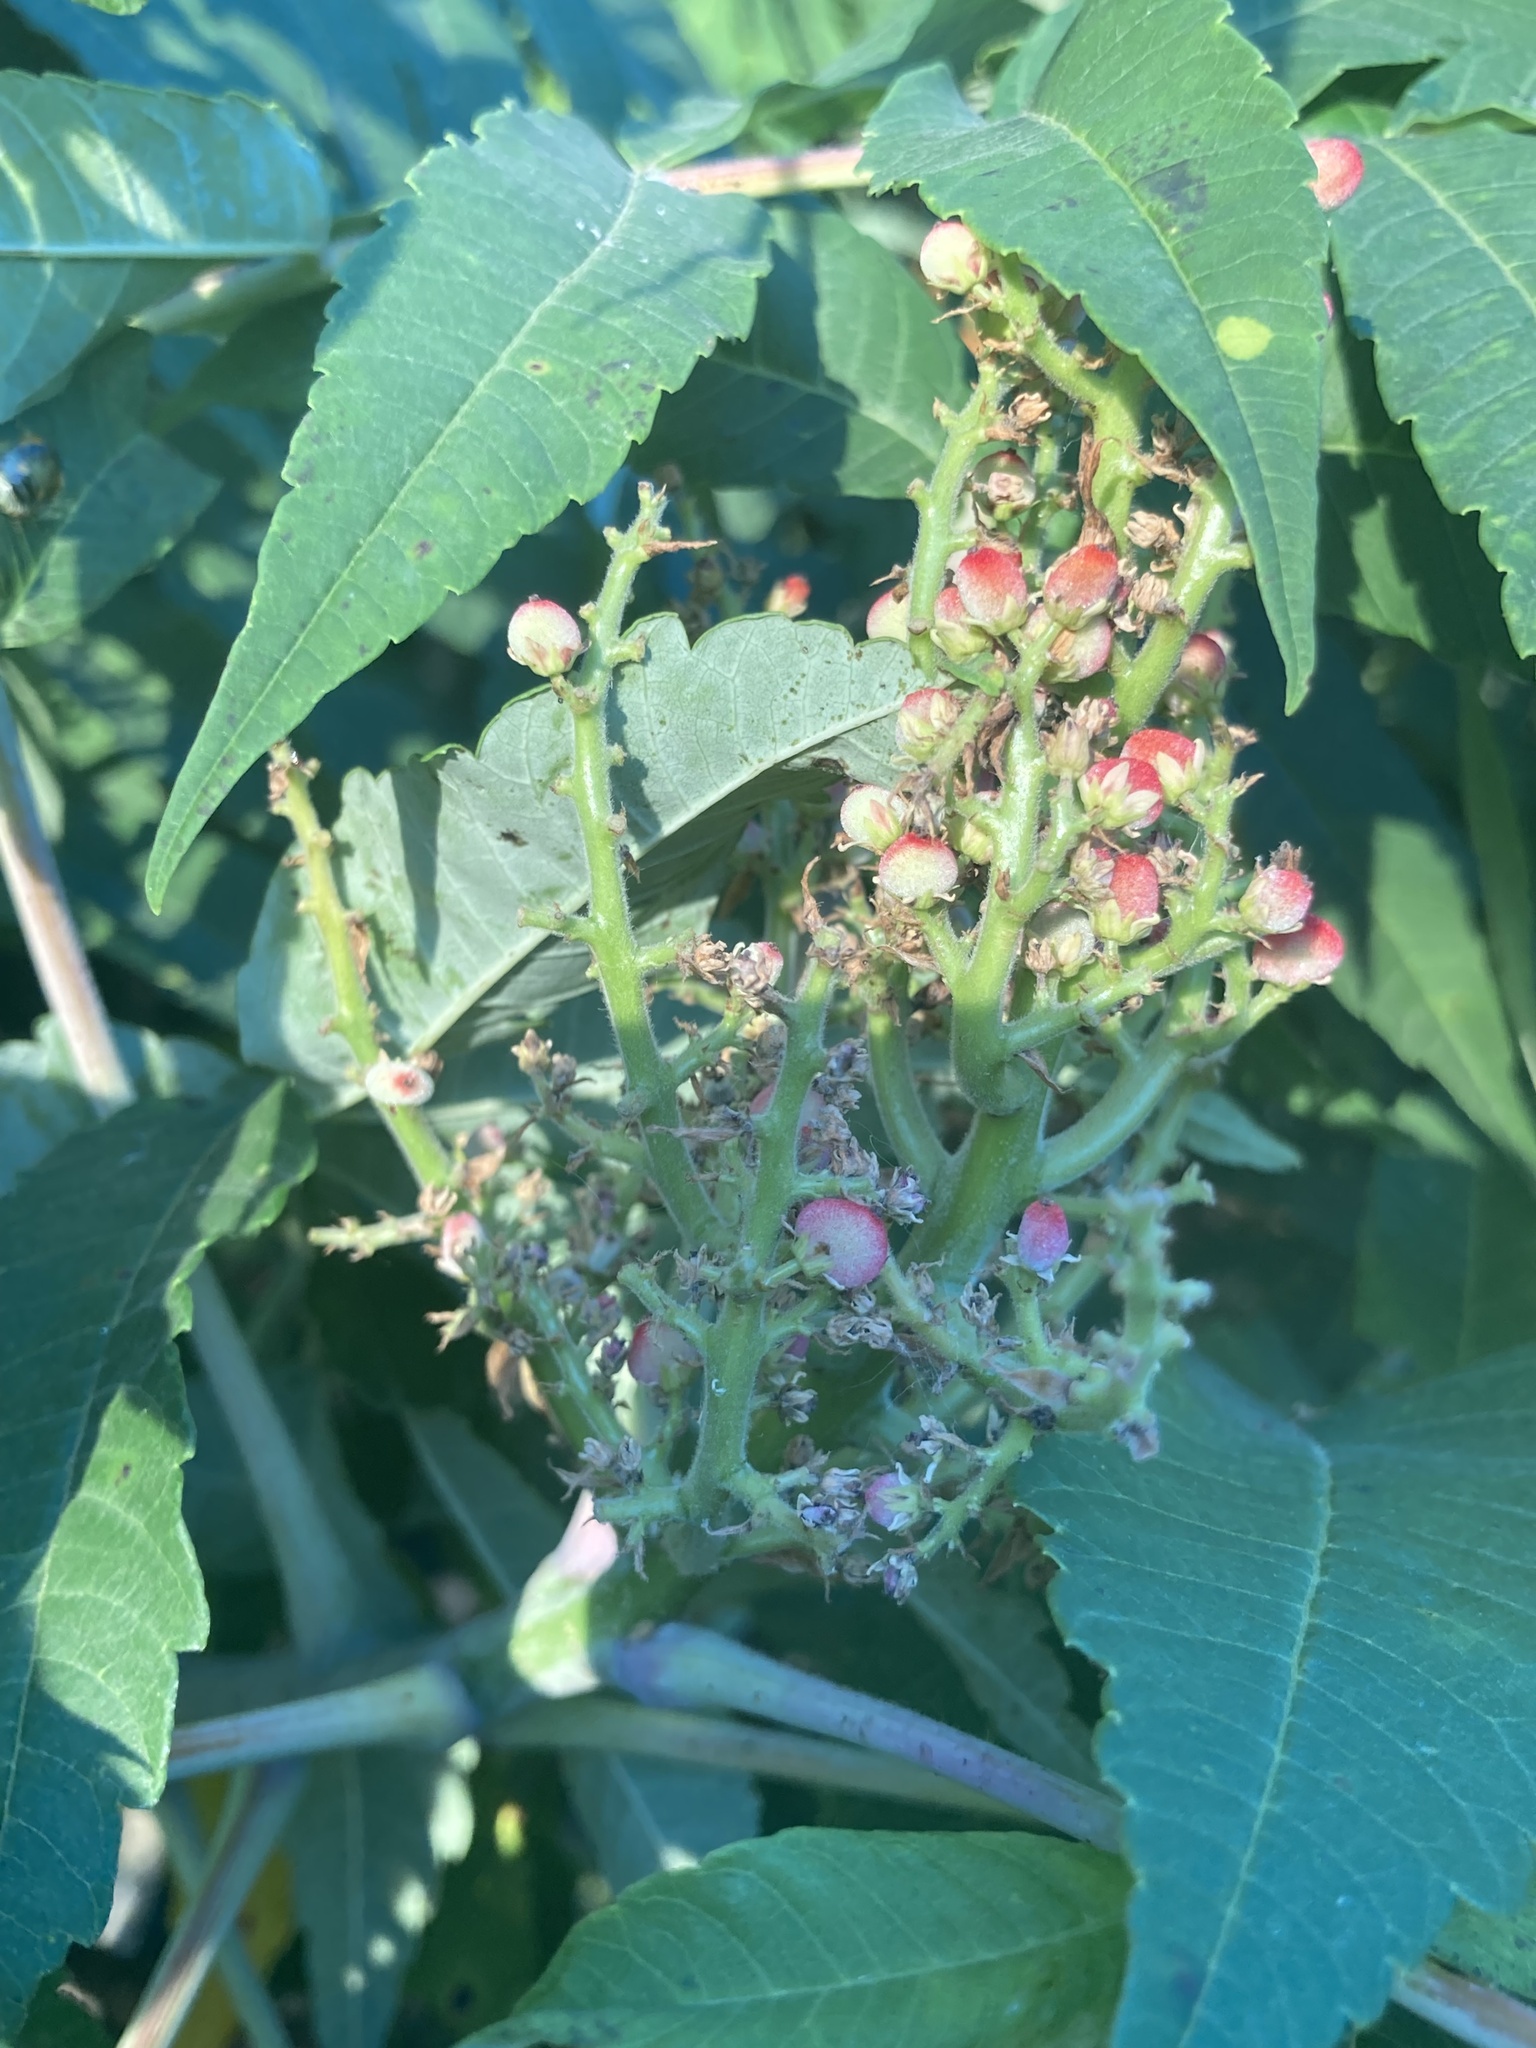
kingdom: Plantae
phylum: Tracheophyta
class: Magnoliopsida
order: Sapindales
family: Anacardiaceae
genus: Rhus
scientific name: Rhus glabra
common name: Scarlet sumac
